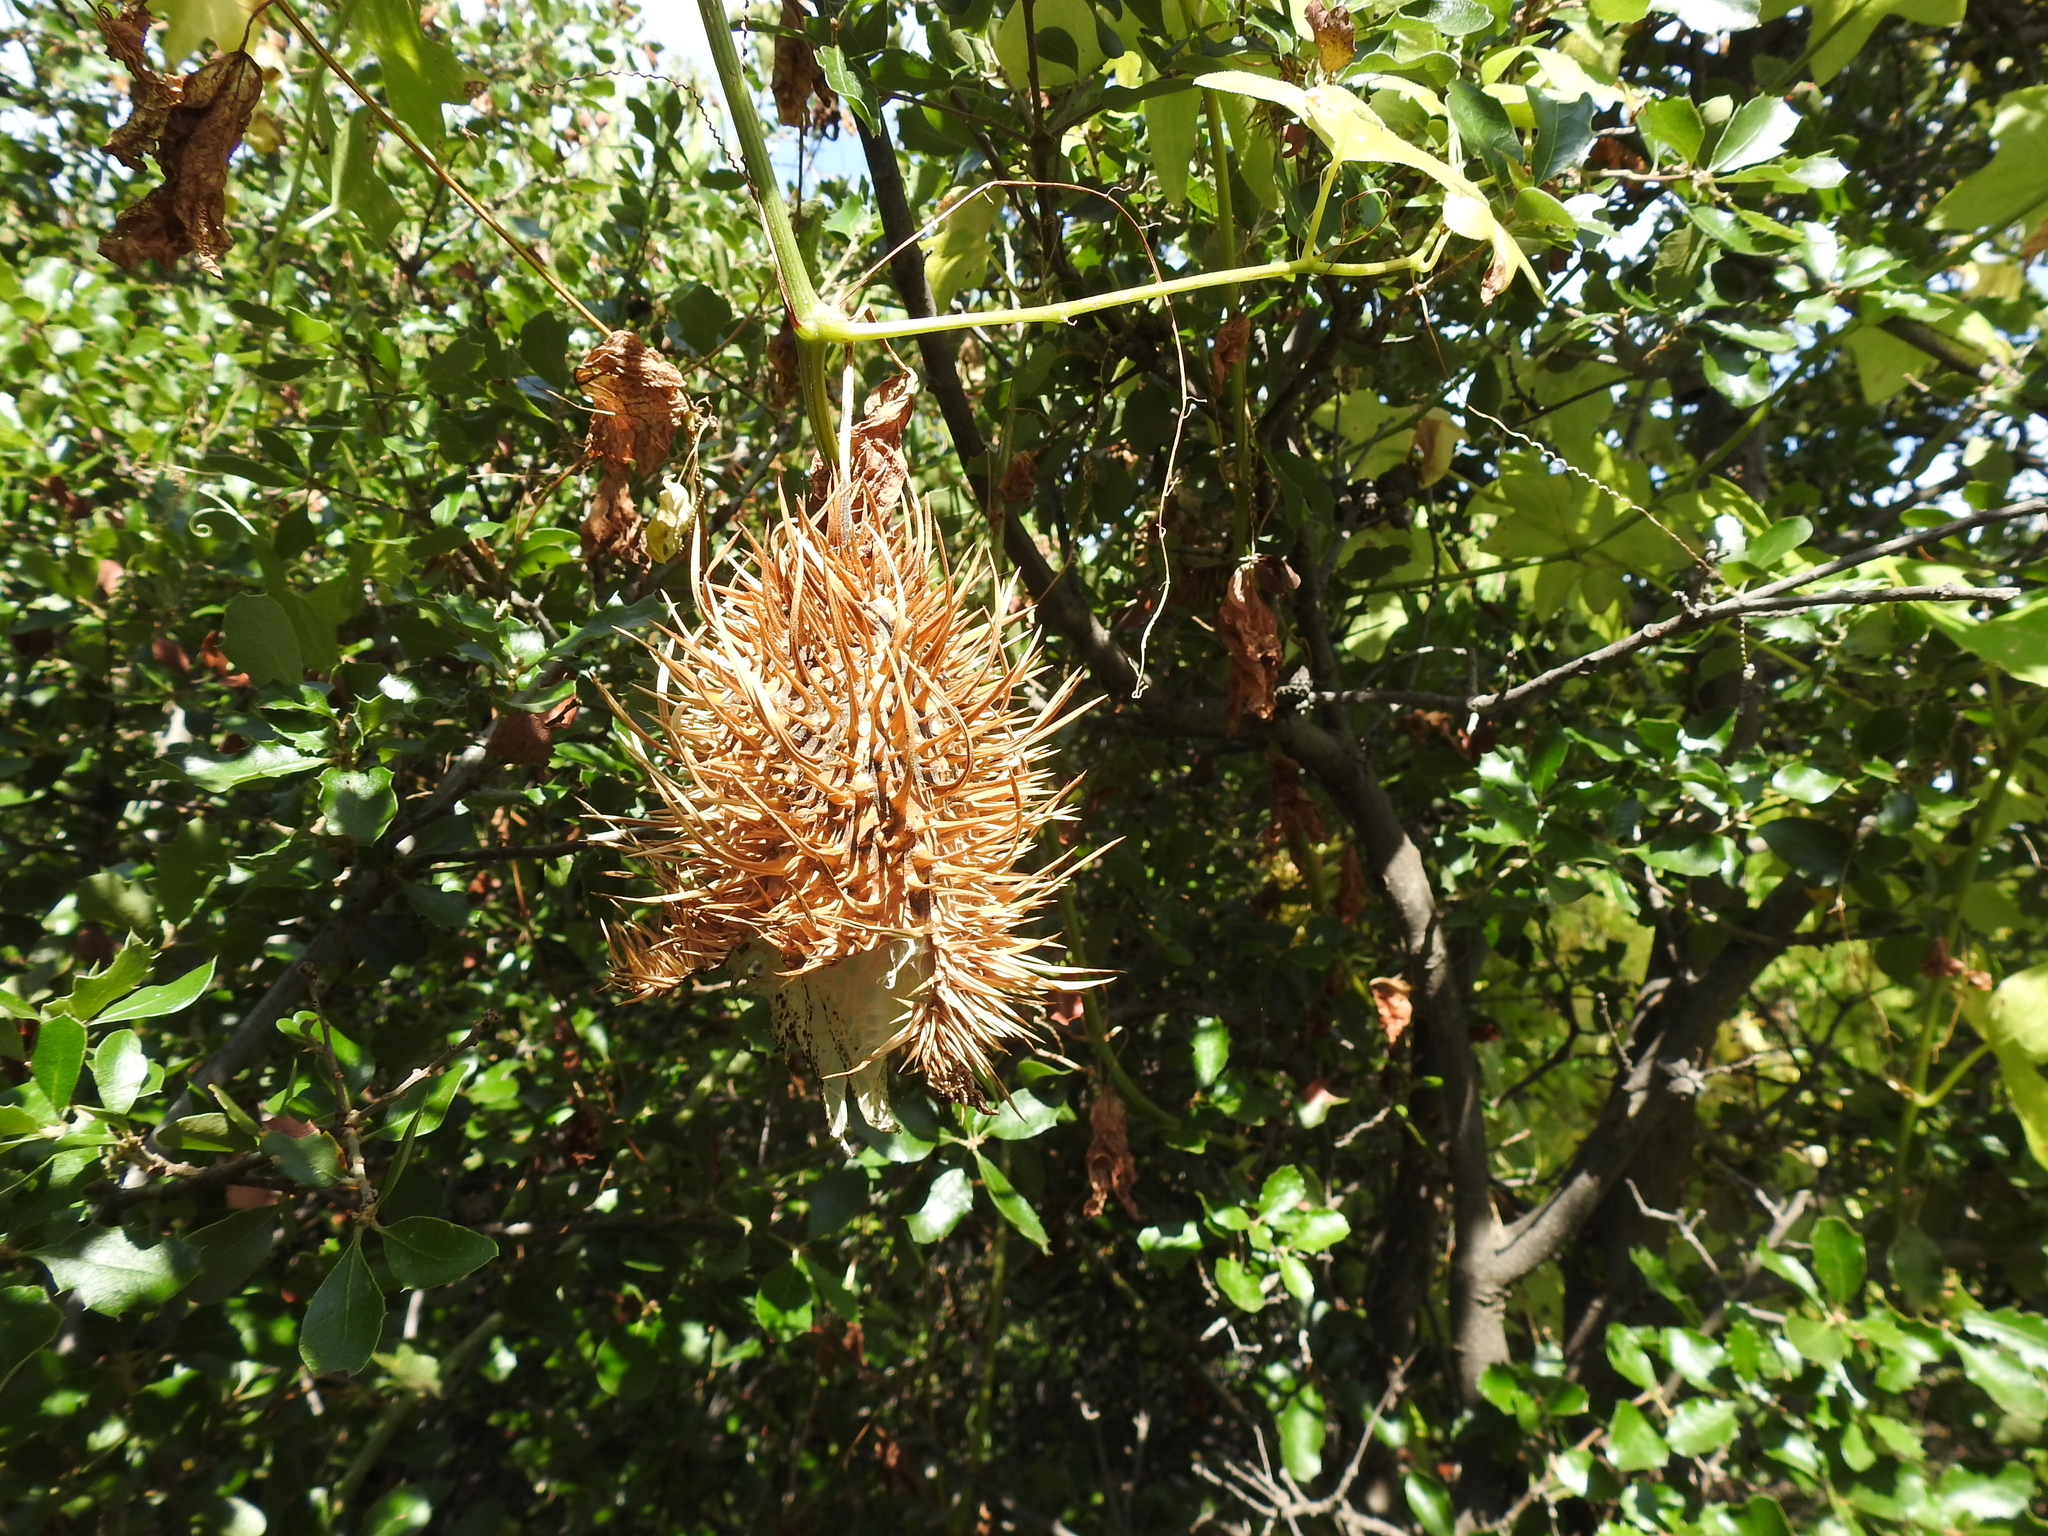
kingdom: Plantae
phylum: Tracheophyta
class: Magnoliopsida
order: Cucurbitales
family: Cucurbitaceae
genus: Marah
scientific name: Marah macrocarpa
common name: Cucamonga manroot
